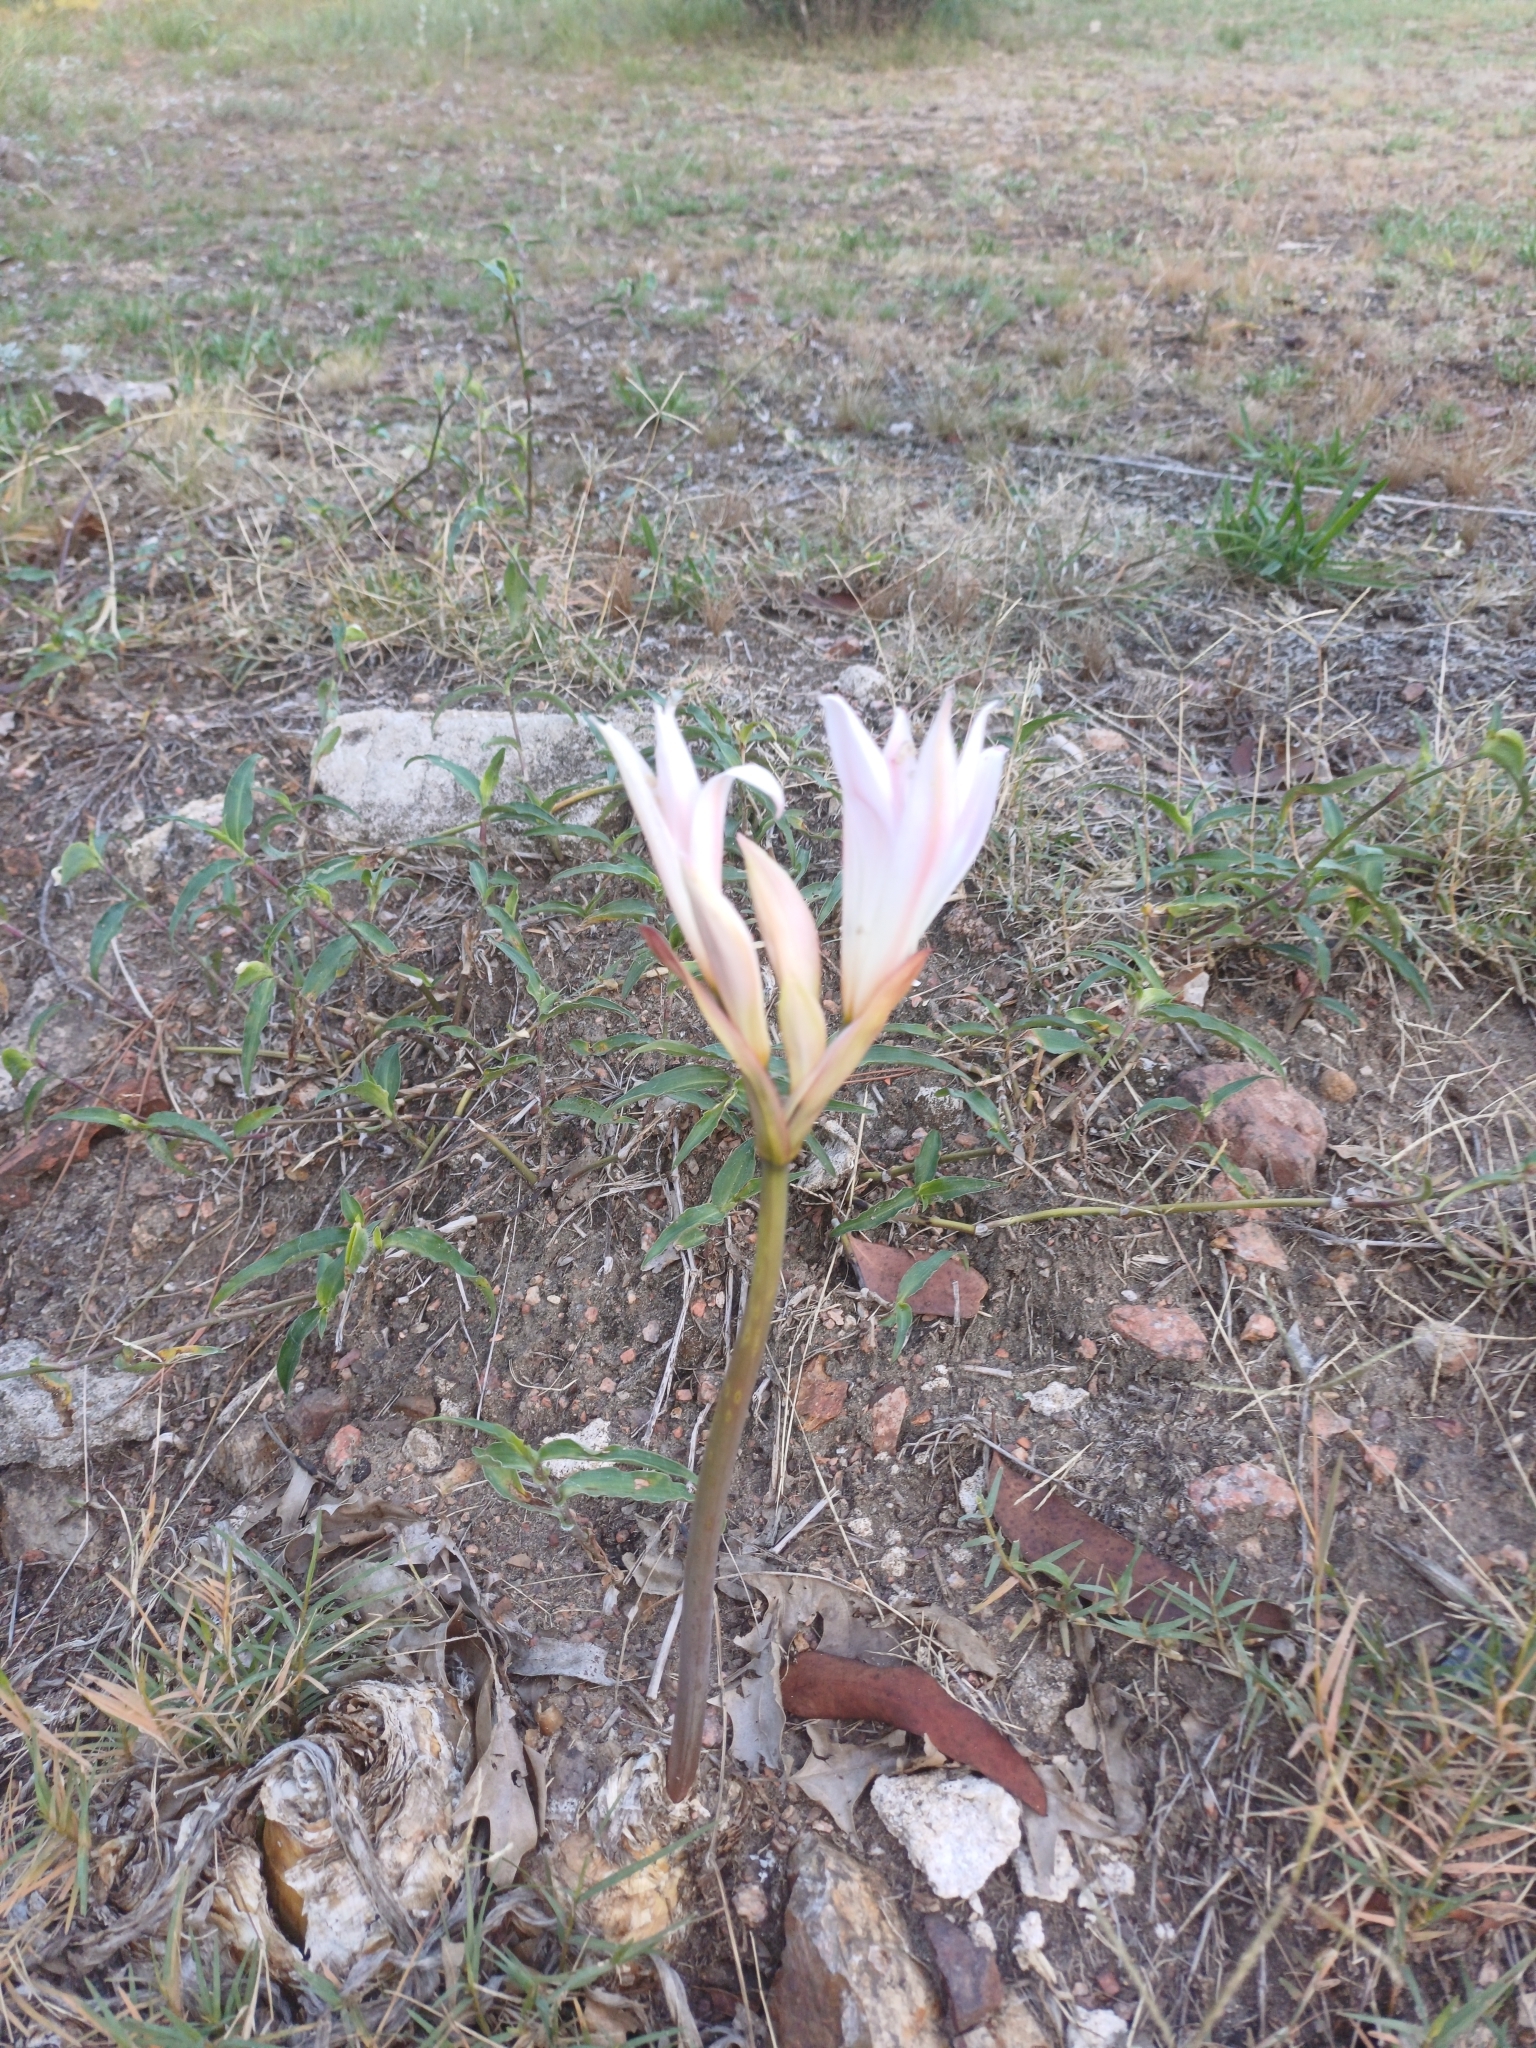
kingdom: Plantae
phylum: Tracheophyta
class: Liliopsida
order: Asparagales
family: Amaryllidaceae
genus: Amaryllis
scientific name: Amaryllis belladonna
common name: Jersey lily
